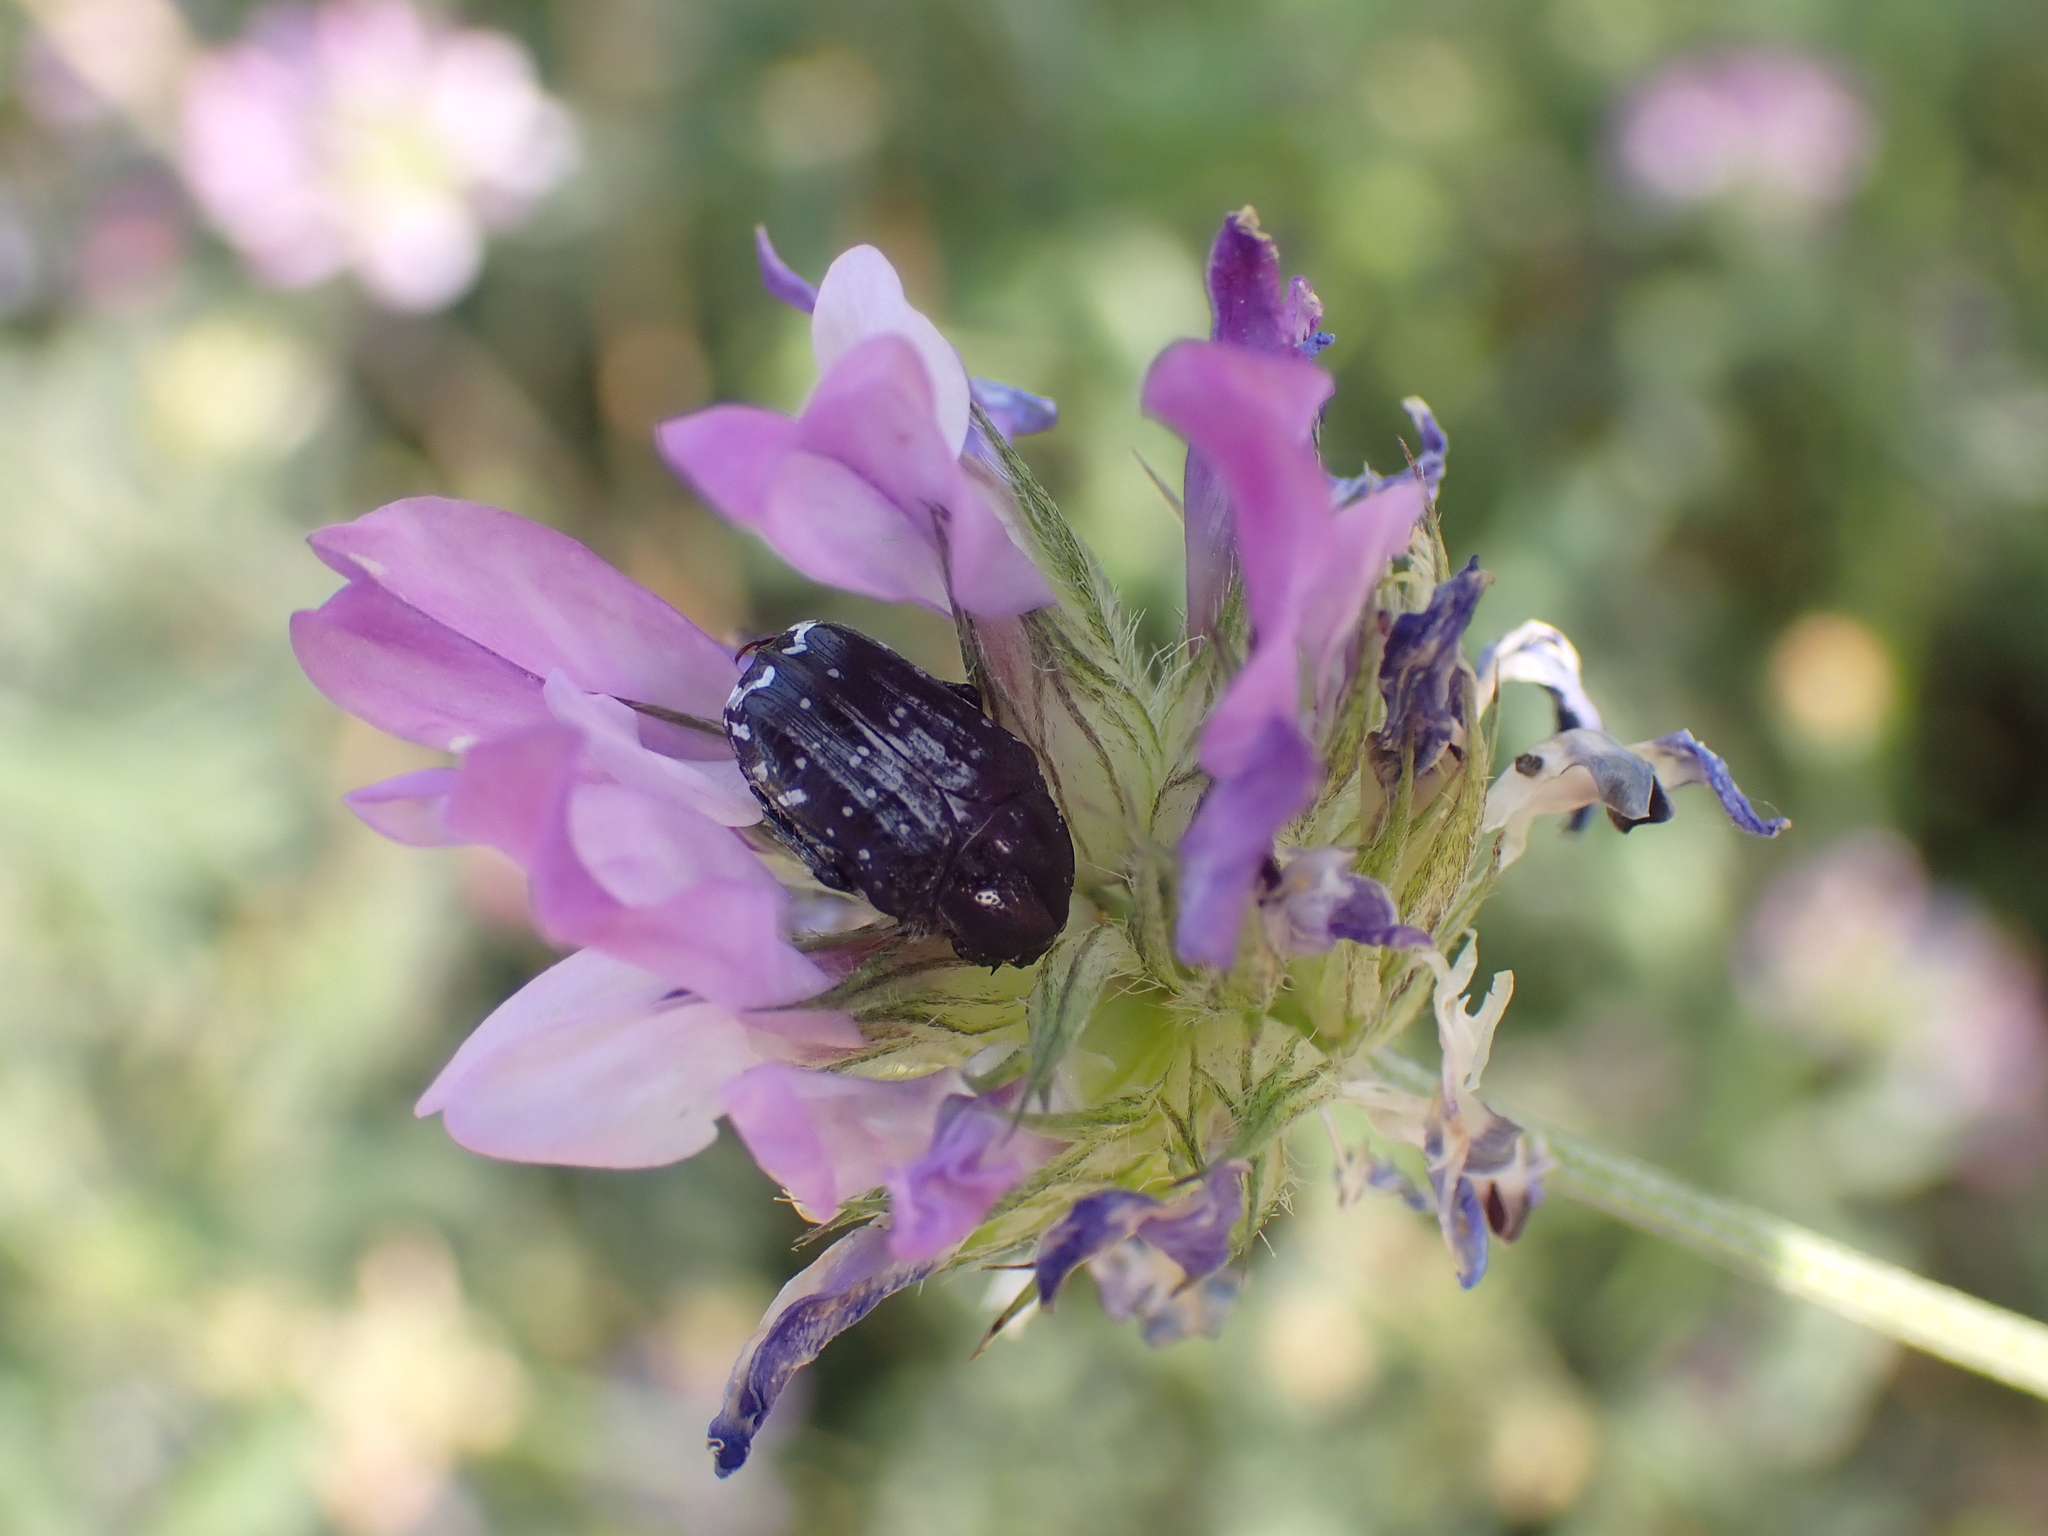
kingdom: Animalia
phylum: Arthropoda
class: Insecta
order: Coleoptera
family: Scarabaeidae
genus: Oxythyrea
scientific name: Oxythyrea funesta
